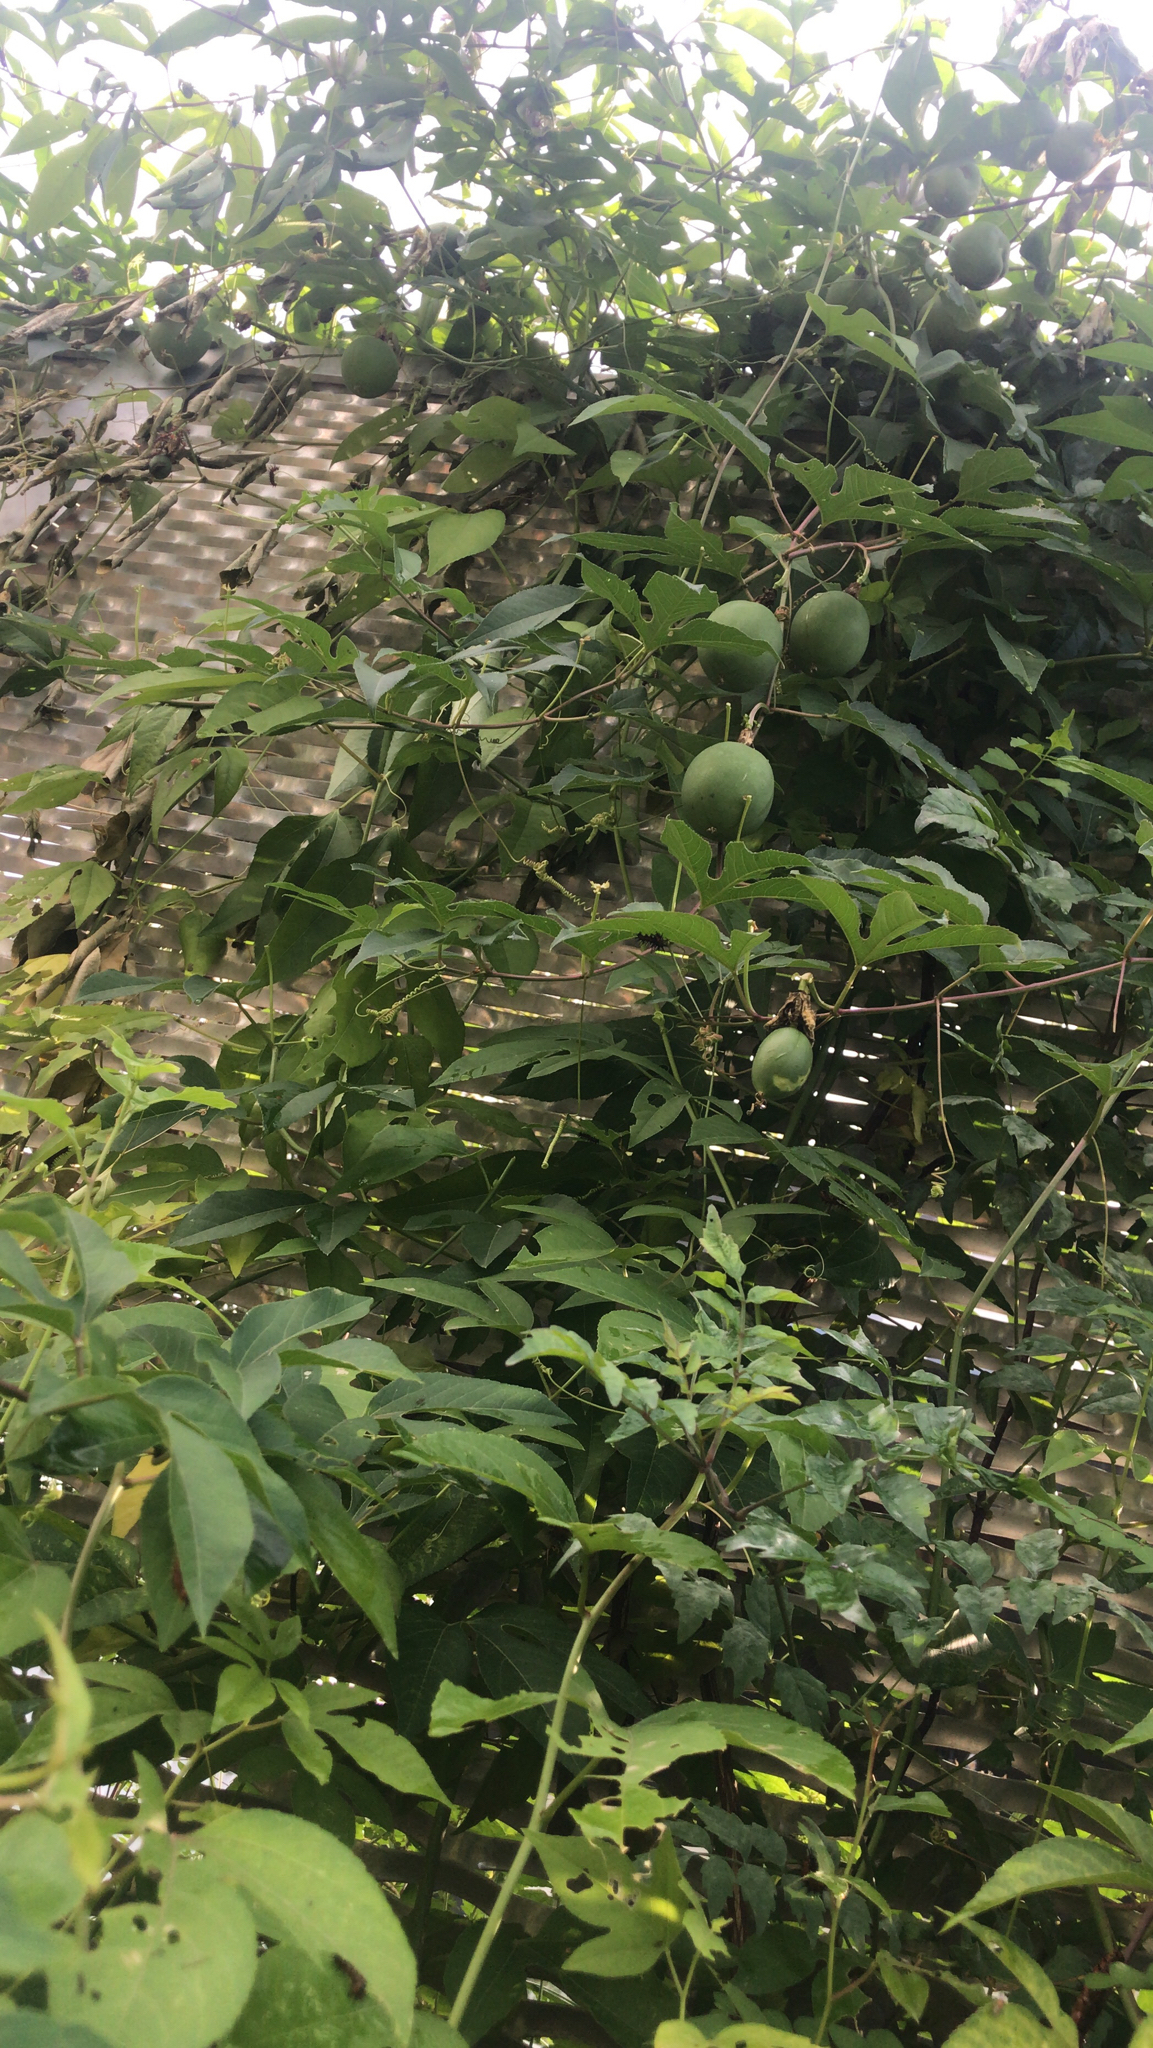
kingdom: Plantae
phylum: Tracheophyta
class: Magnoliopsida
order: Malpighiales
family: Passifloraceae
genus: Passiflora
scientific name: Passiflora incarnata
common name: Apricot-vine
